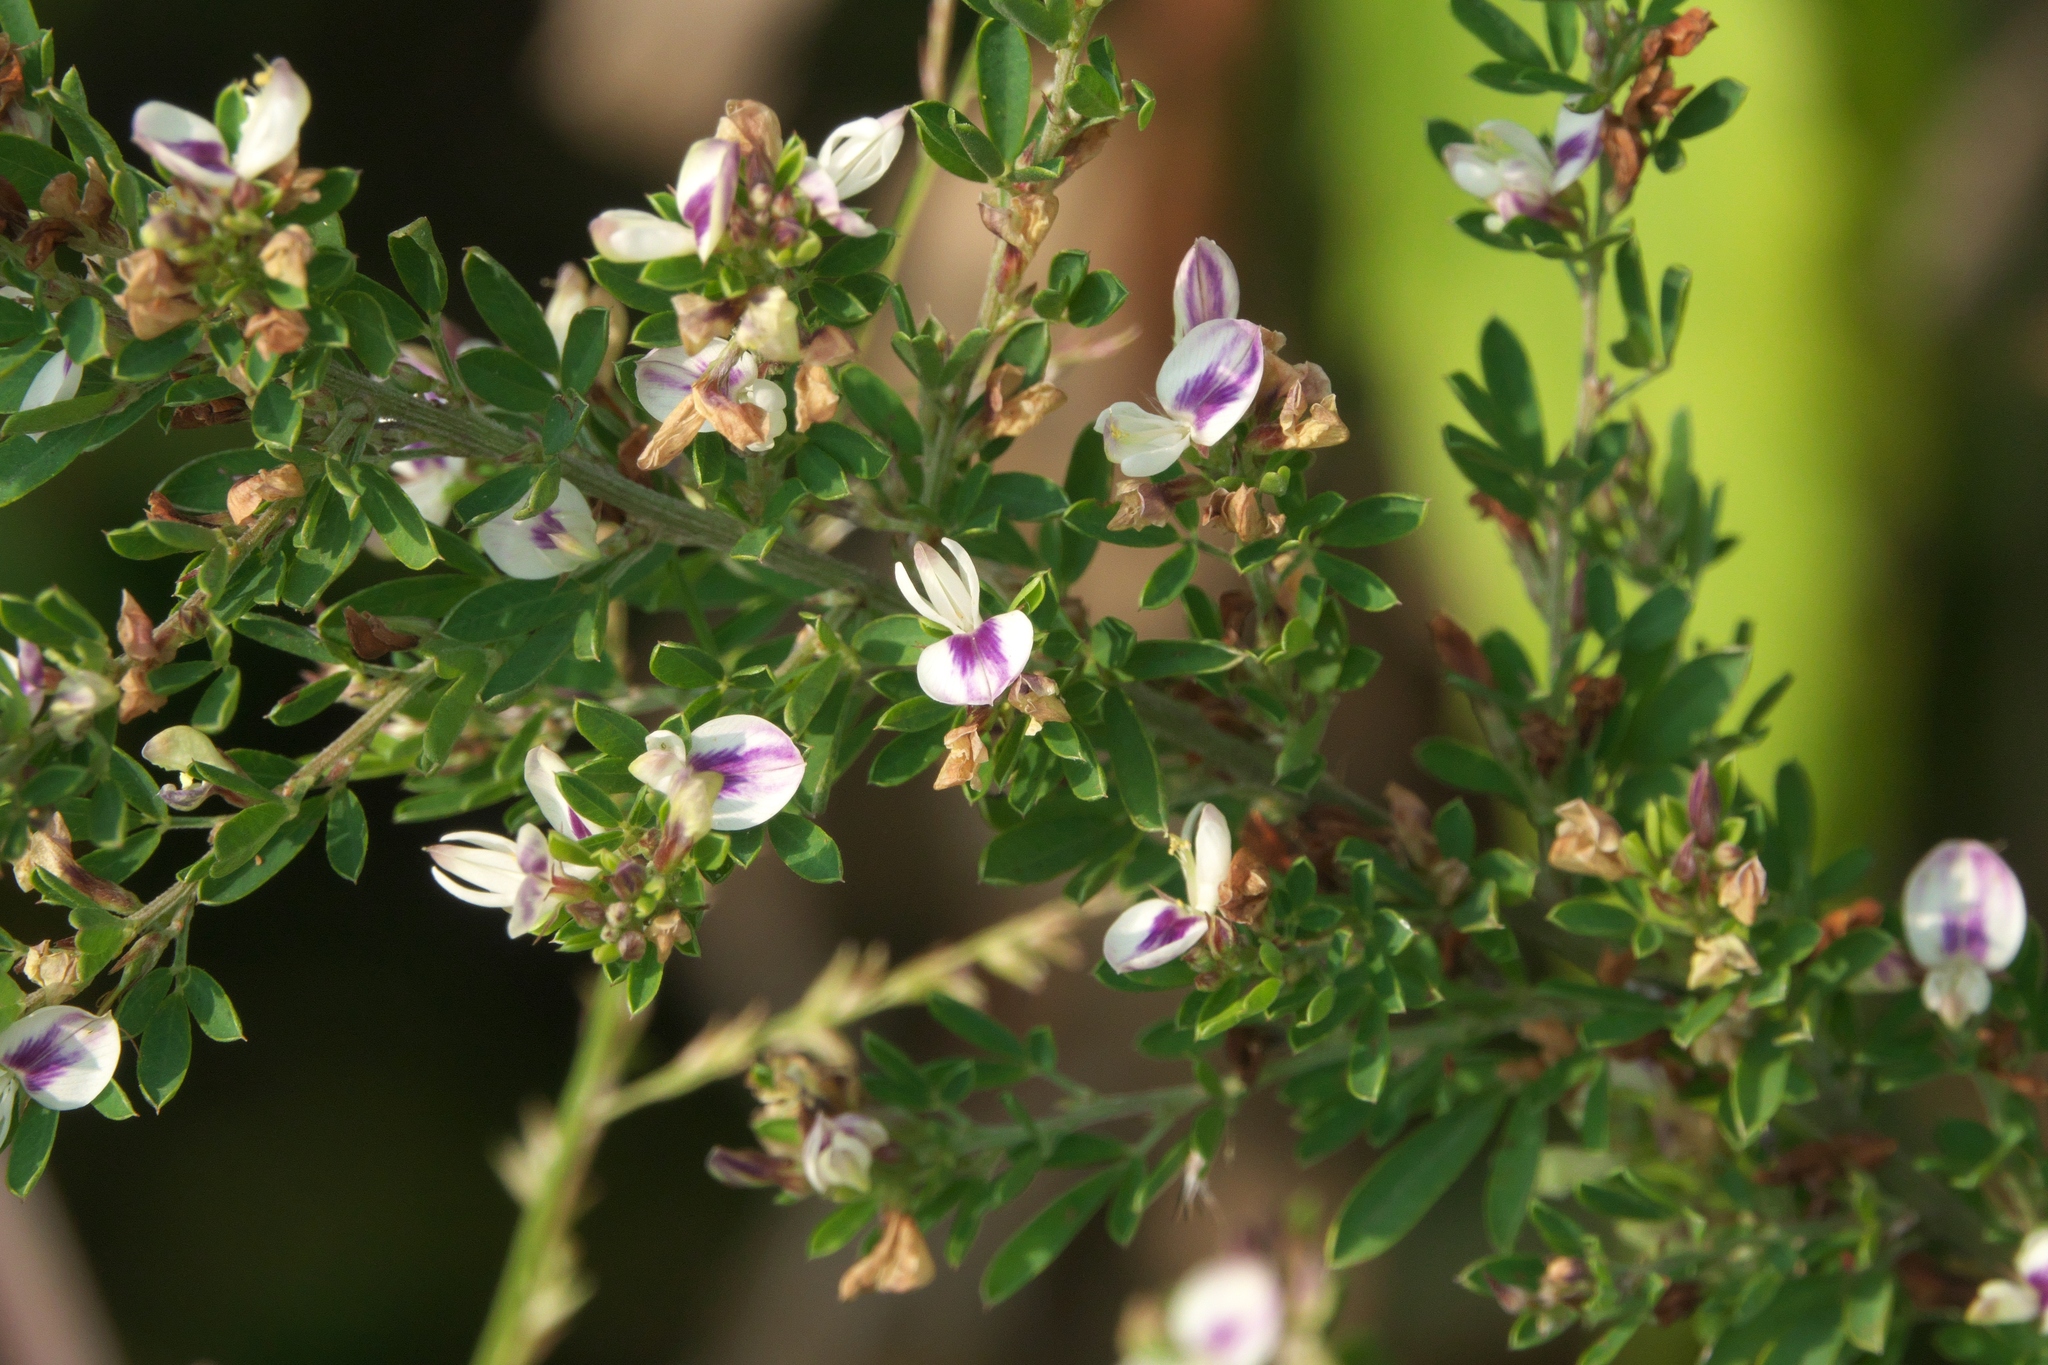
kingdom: Plantae
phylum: Tracheophyta
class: Magnoliopsida
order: Fabales
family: Fabaceae
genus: Lespedeza
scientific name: Lespedeza cuneata
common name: Chinese bush-clover
